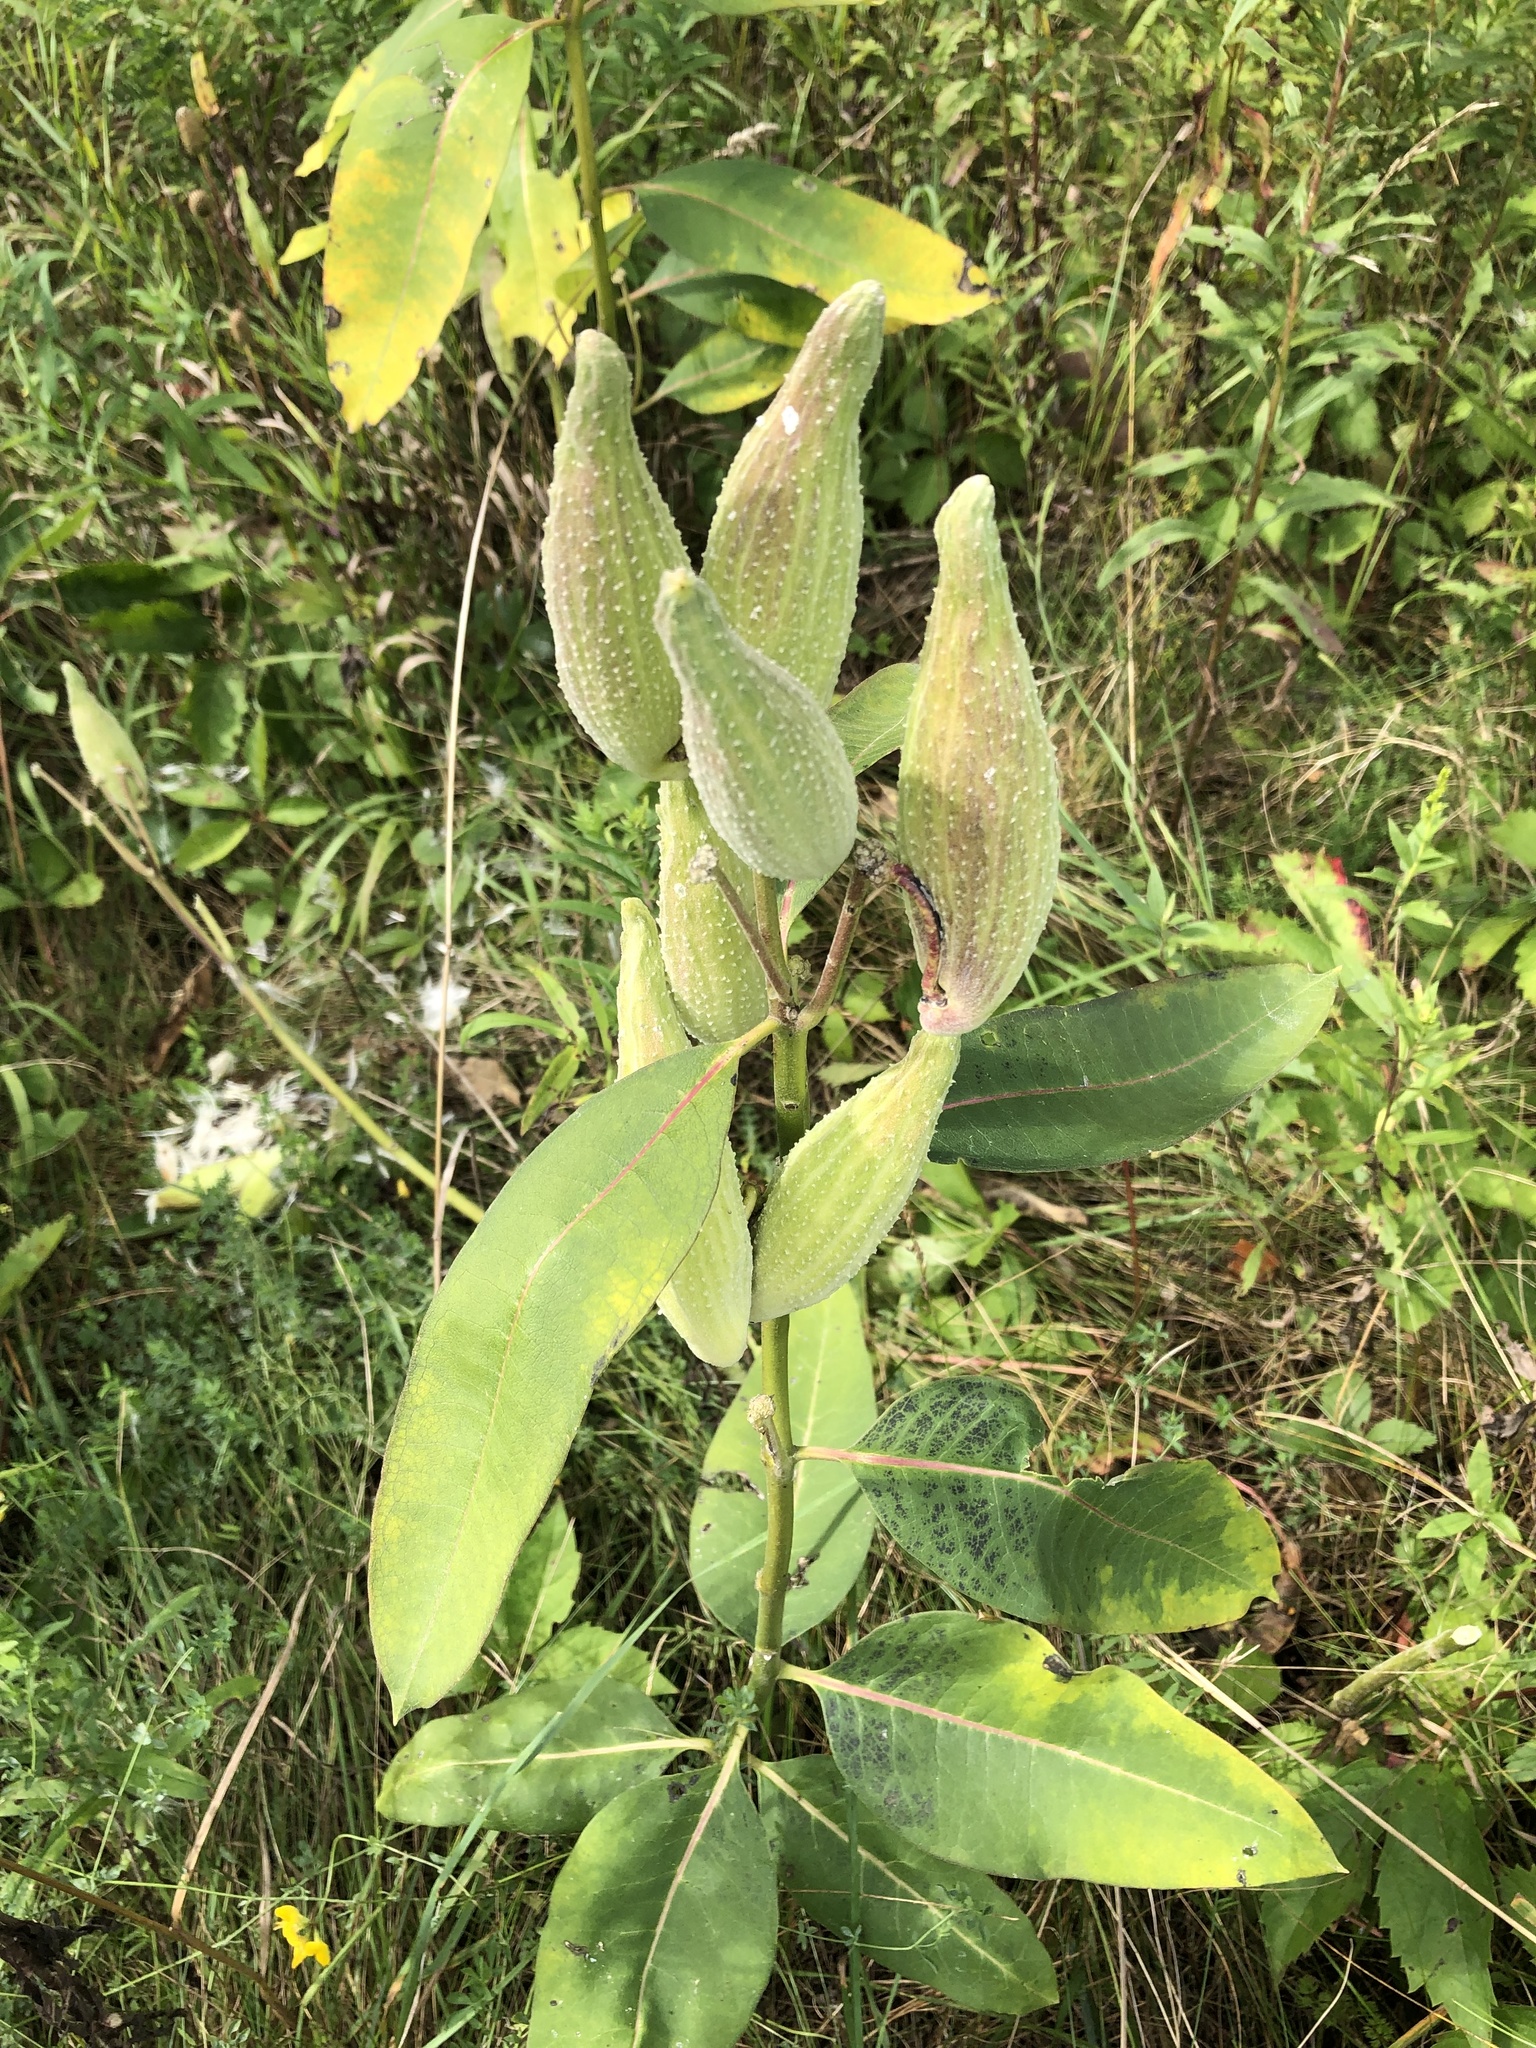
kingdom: Plantae
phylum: Tracheophyta
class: Magnoliopsida
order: Gentianales
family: Apocynaceae
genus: Asclepias
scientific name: Asclepias syriaca
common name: Common milkweed
